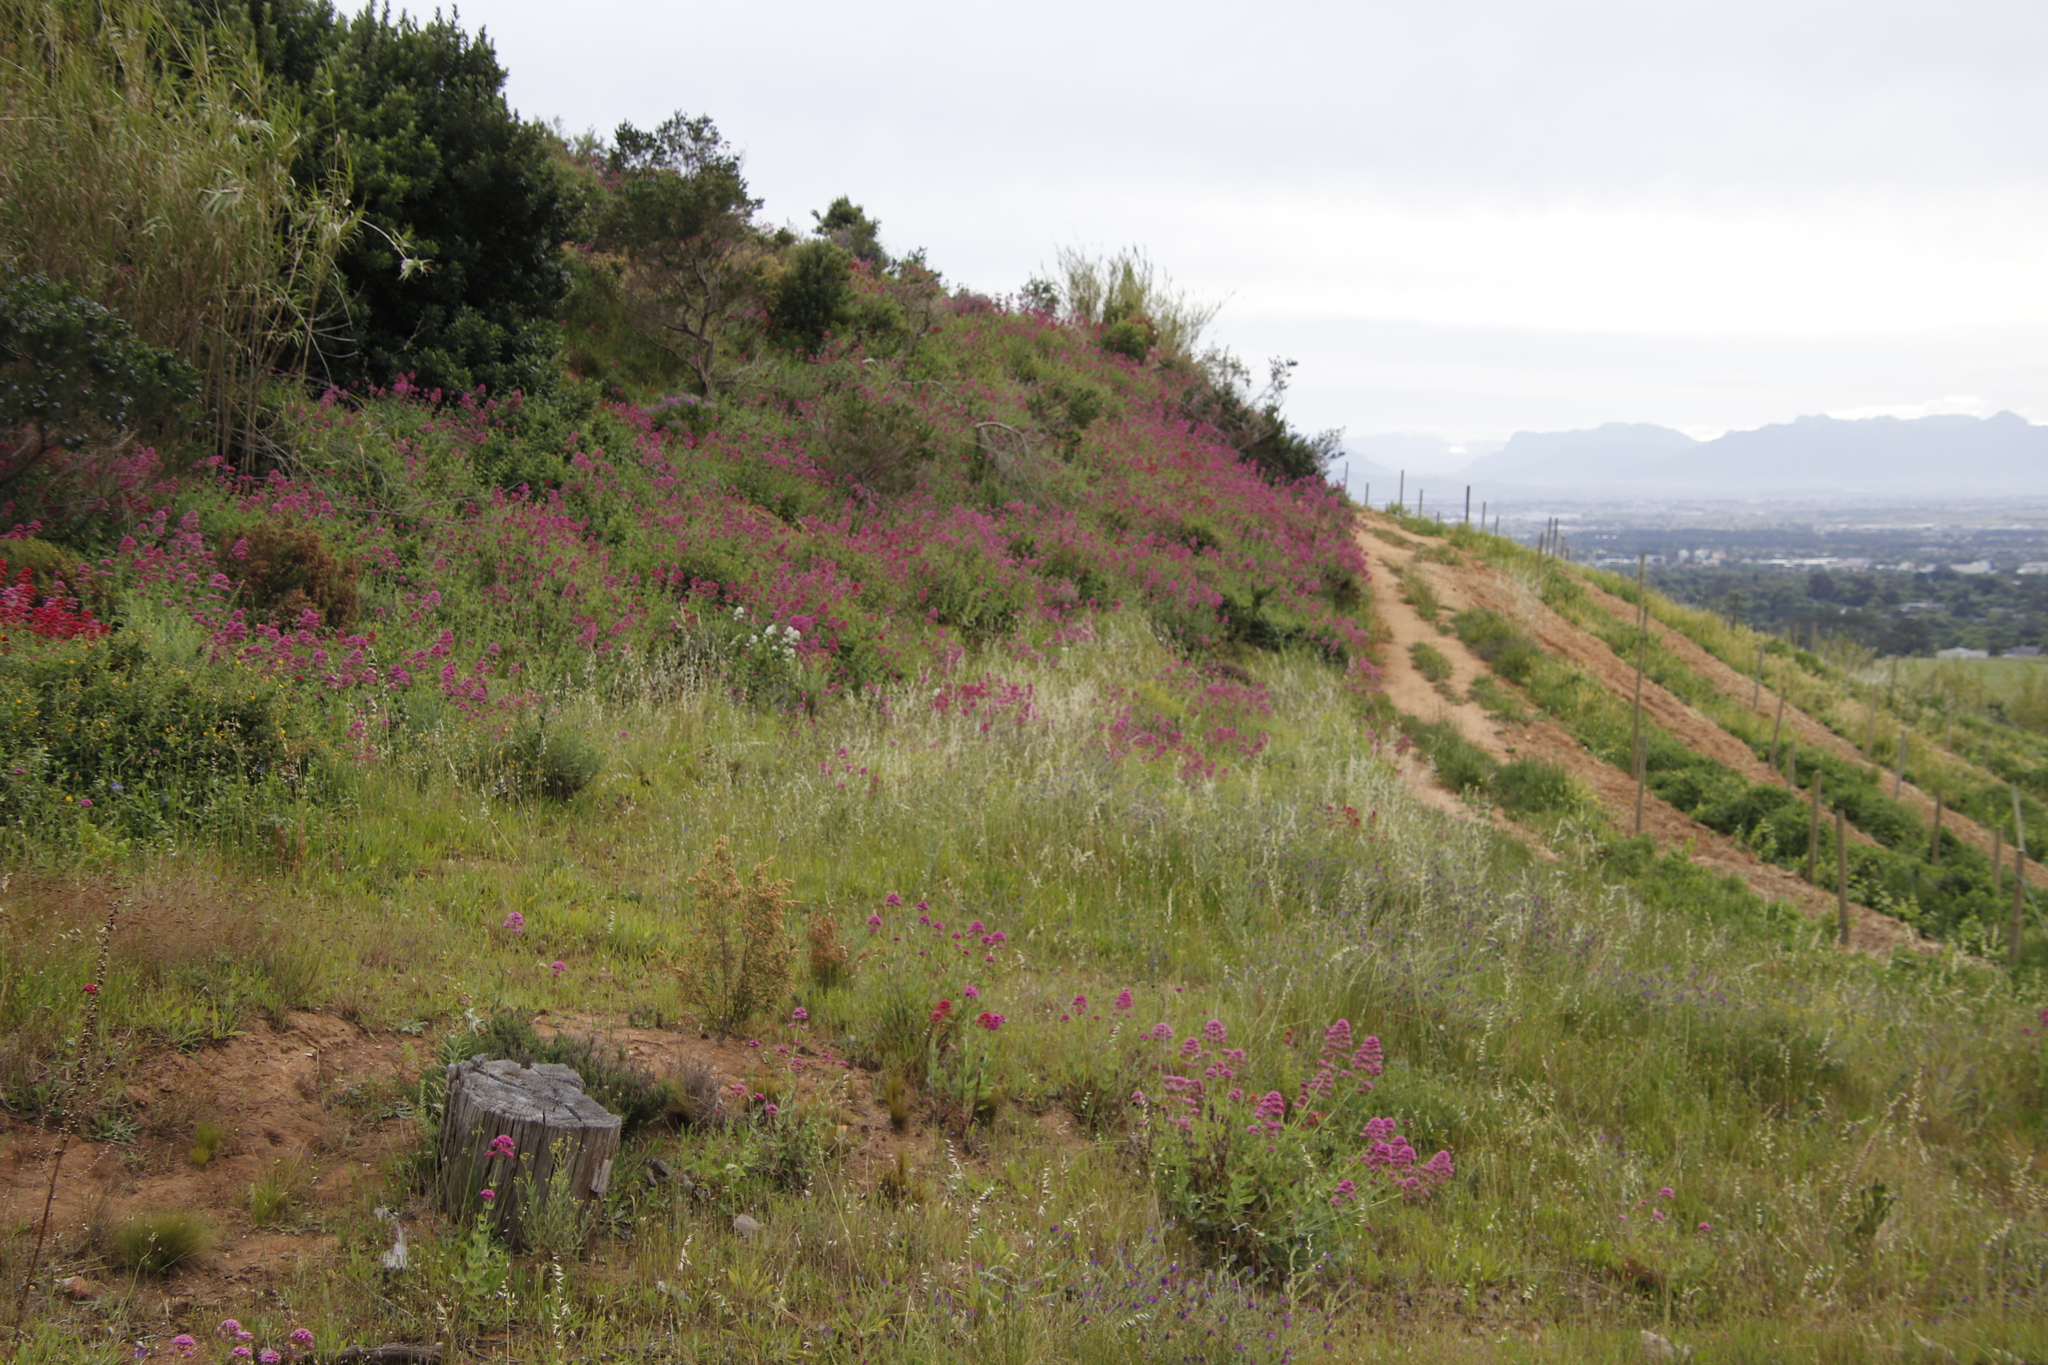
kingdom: Plantae
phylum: Tracheophyta
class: Magnoliopsida
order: Dipsacales
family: Caprifoliaceae
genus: Centranthus
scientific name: Centranthus ruber
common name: Red valerian
